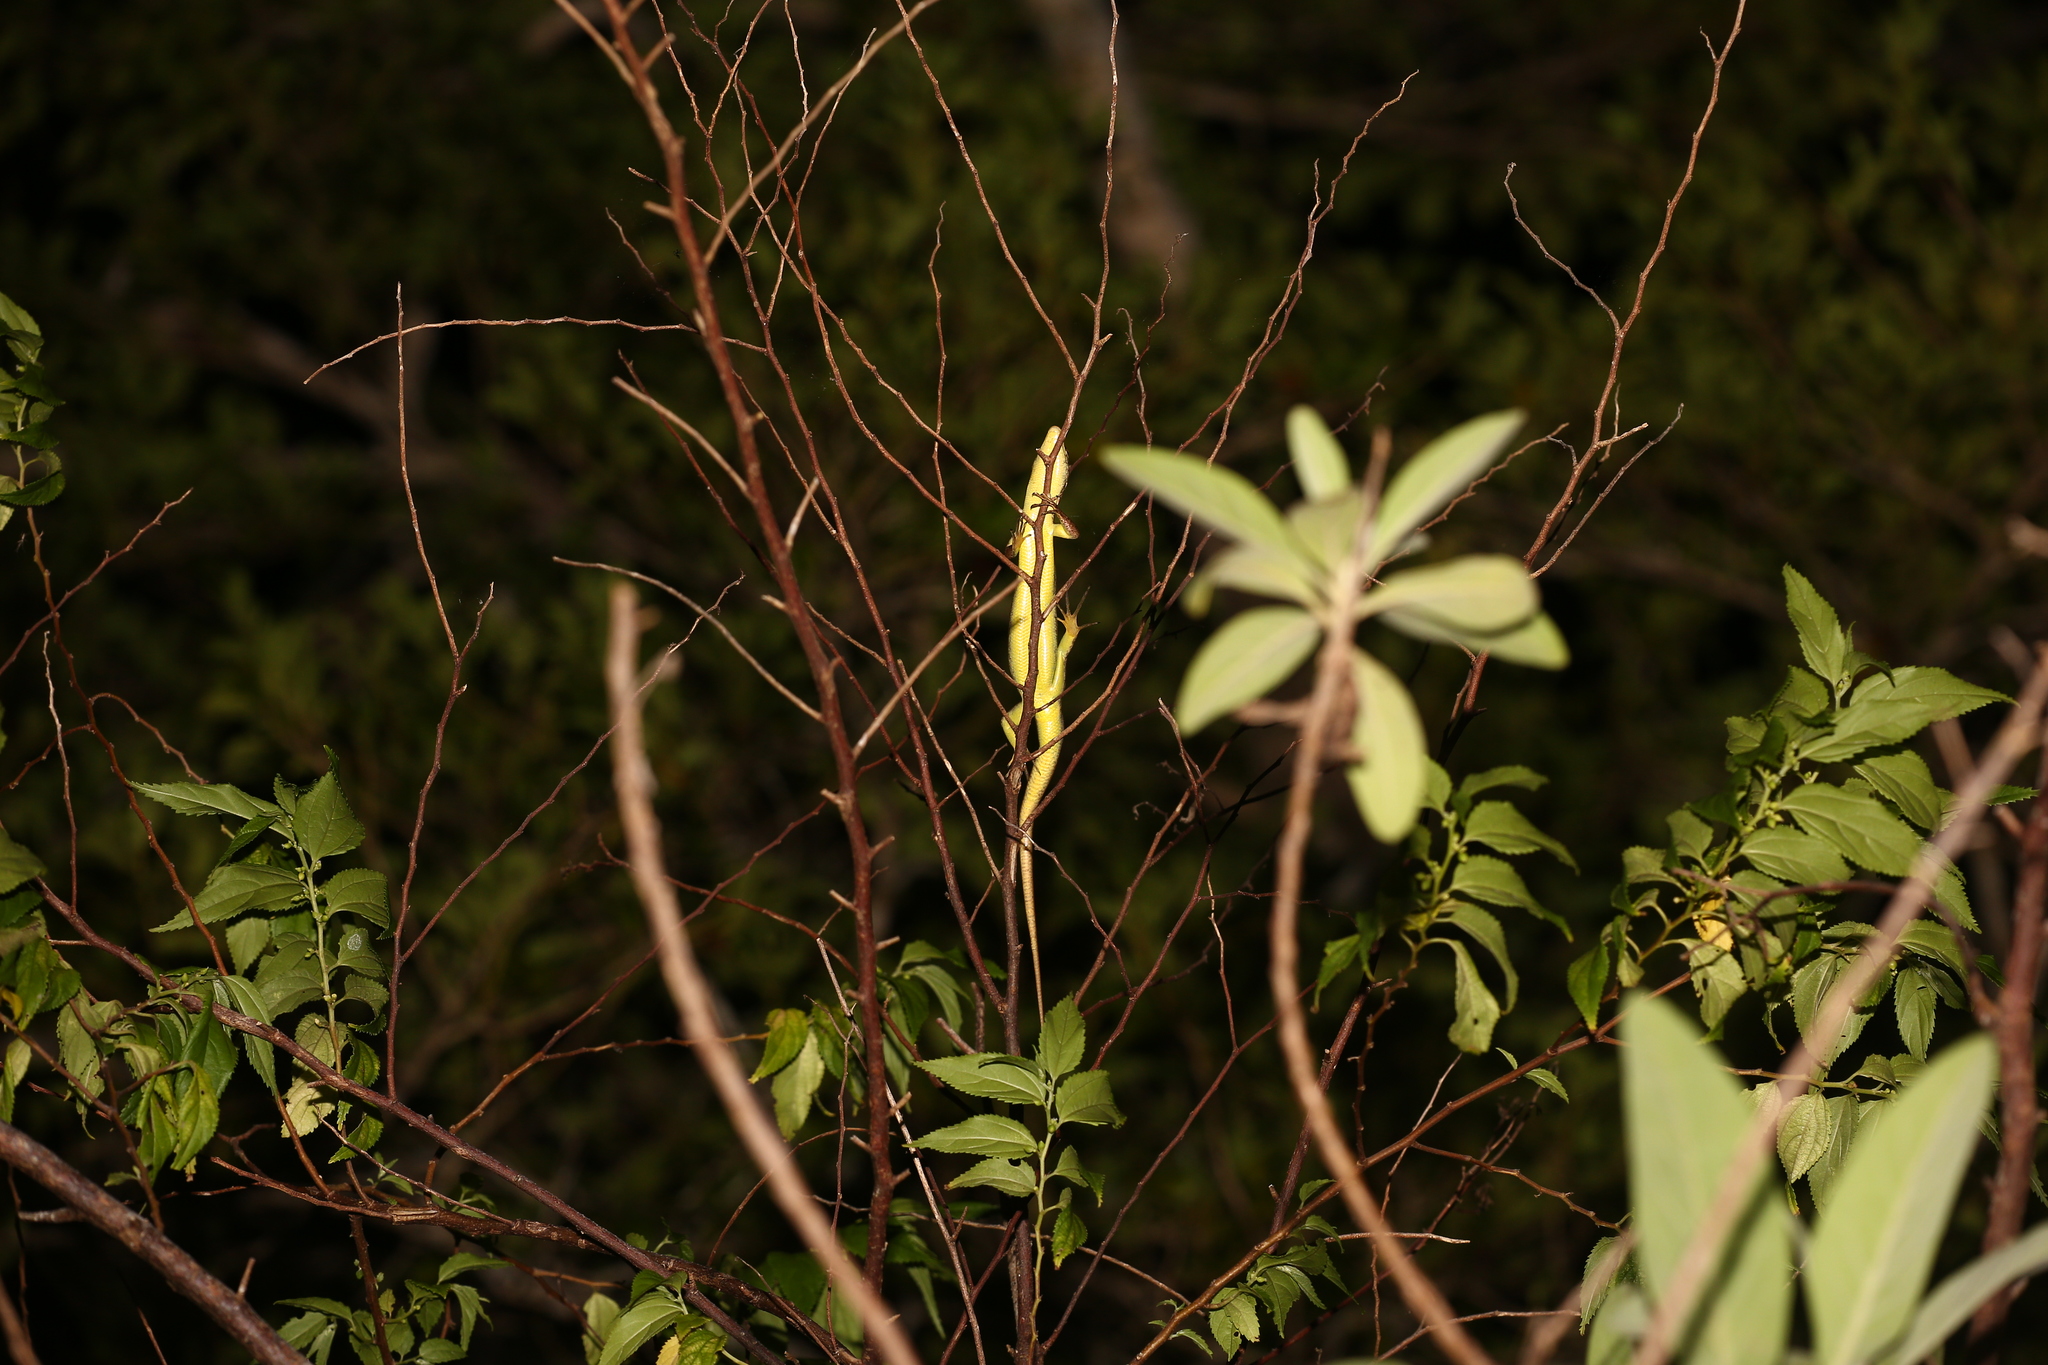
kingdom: Animalia
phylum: Chordata
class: Squamata
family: Scincidae
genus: Epibator
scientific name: Epibator nigrofasciolatus
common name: Green-bellied tree skink
